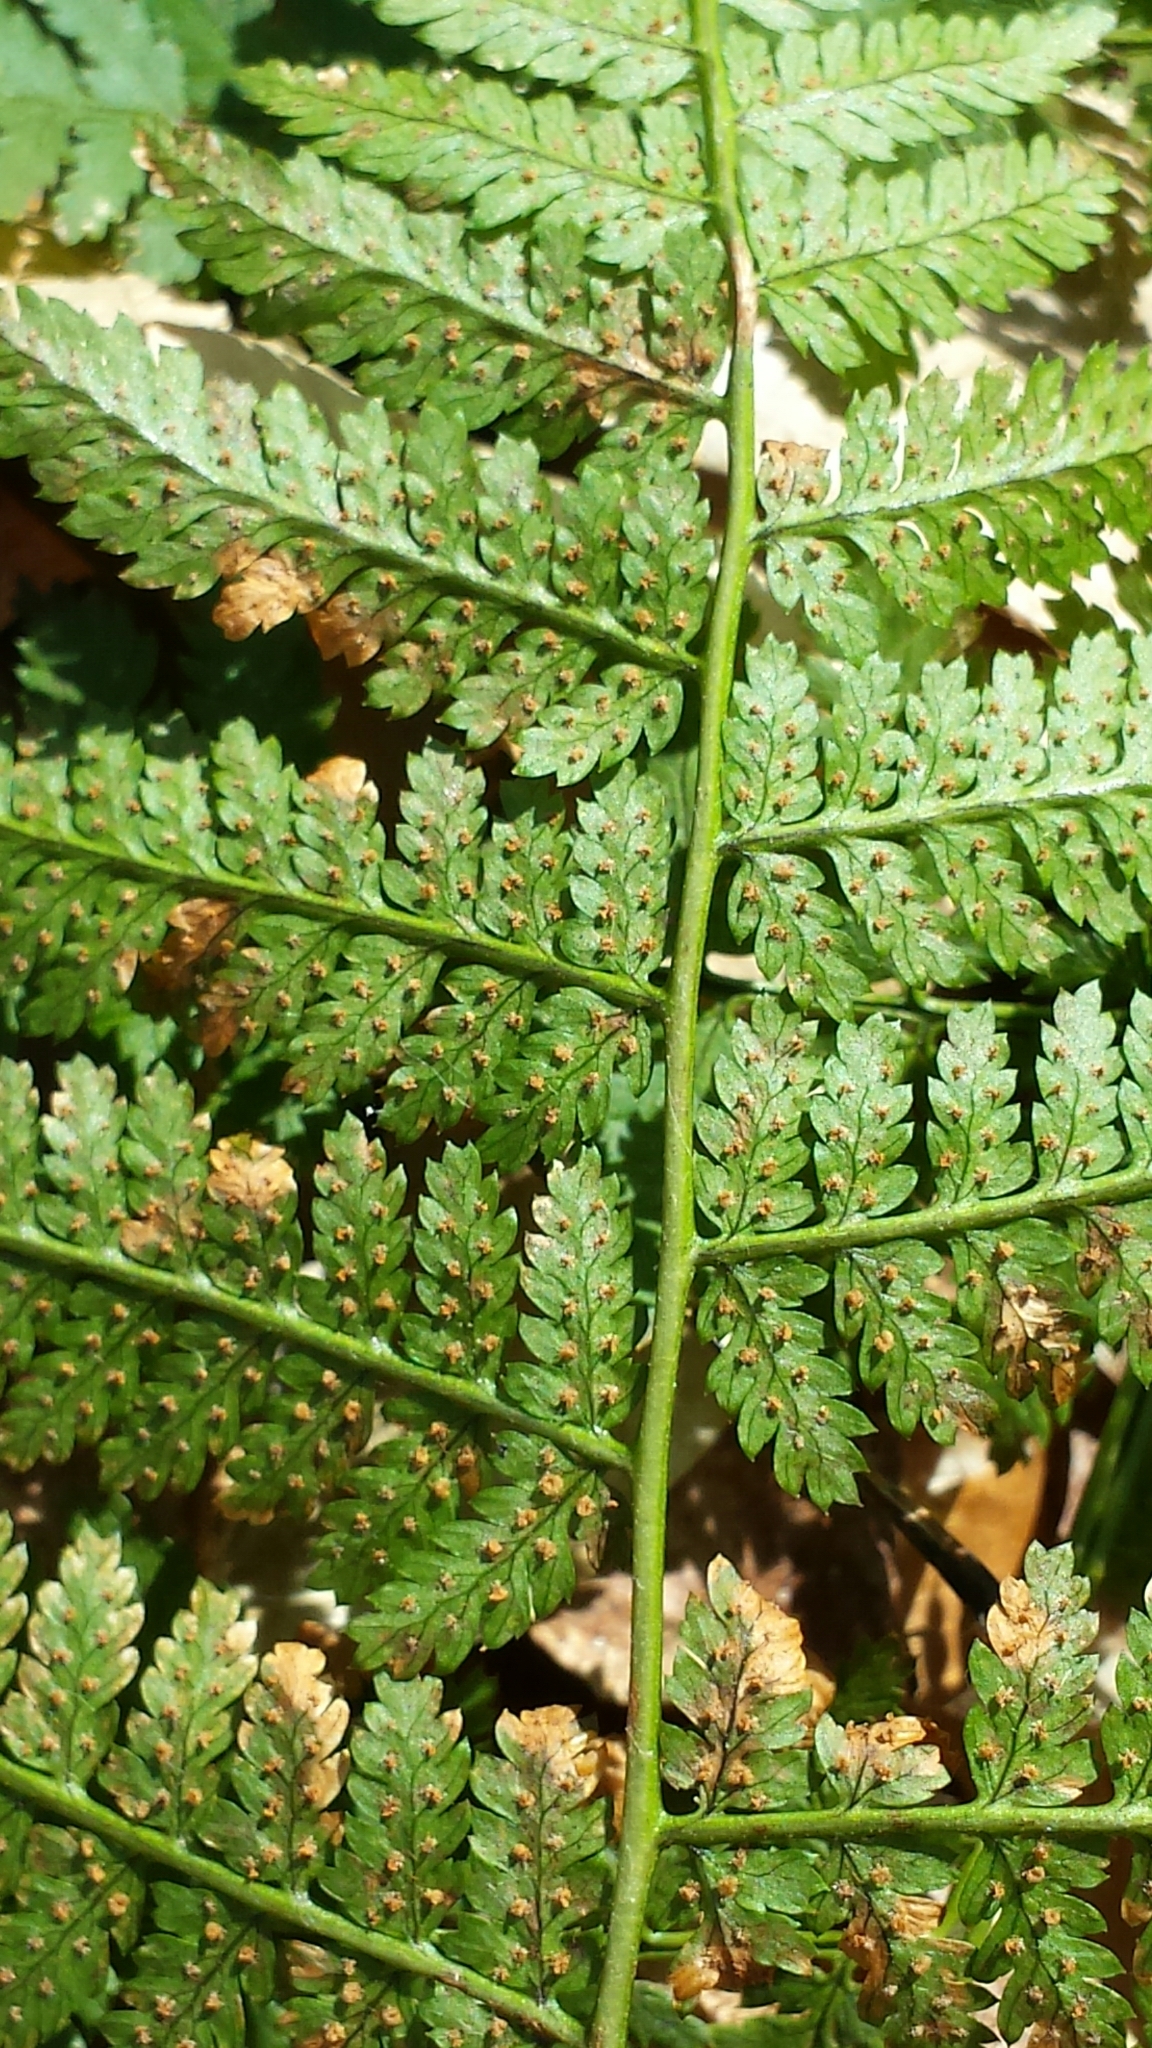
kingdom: Plantae
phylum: Tracheophyta
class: Polypodiopsida
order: Polypodiales
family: Dryopteridaceae
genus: Dryopteris
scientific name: Dryopteris intermedia
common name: Evergreen wood fern
